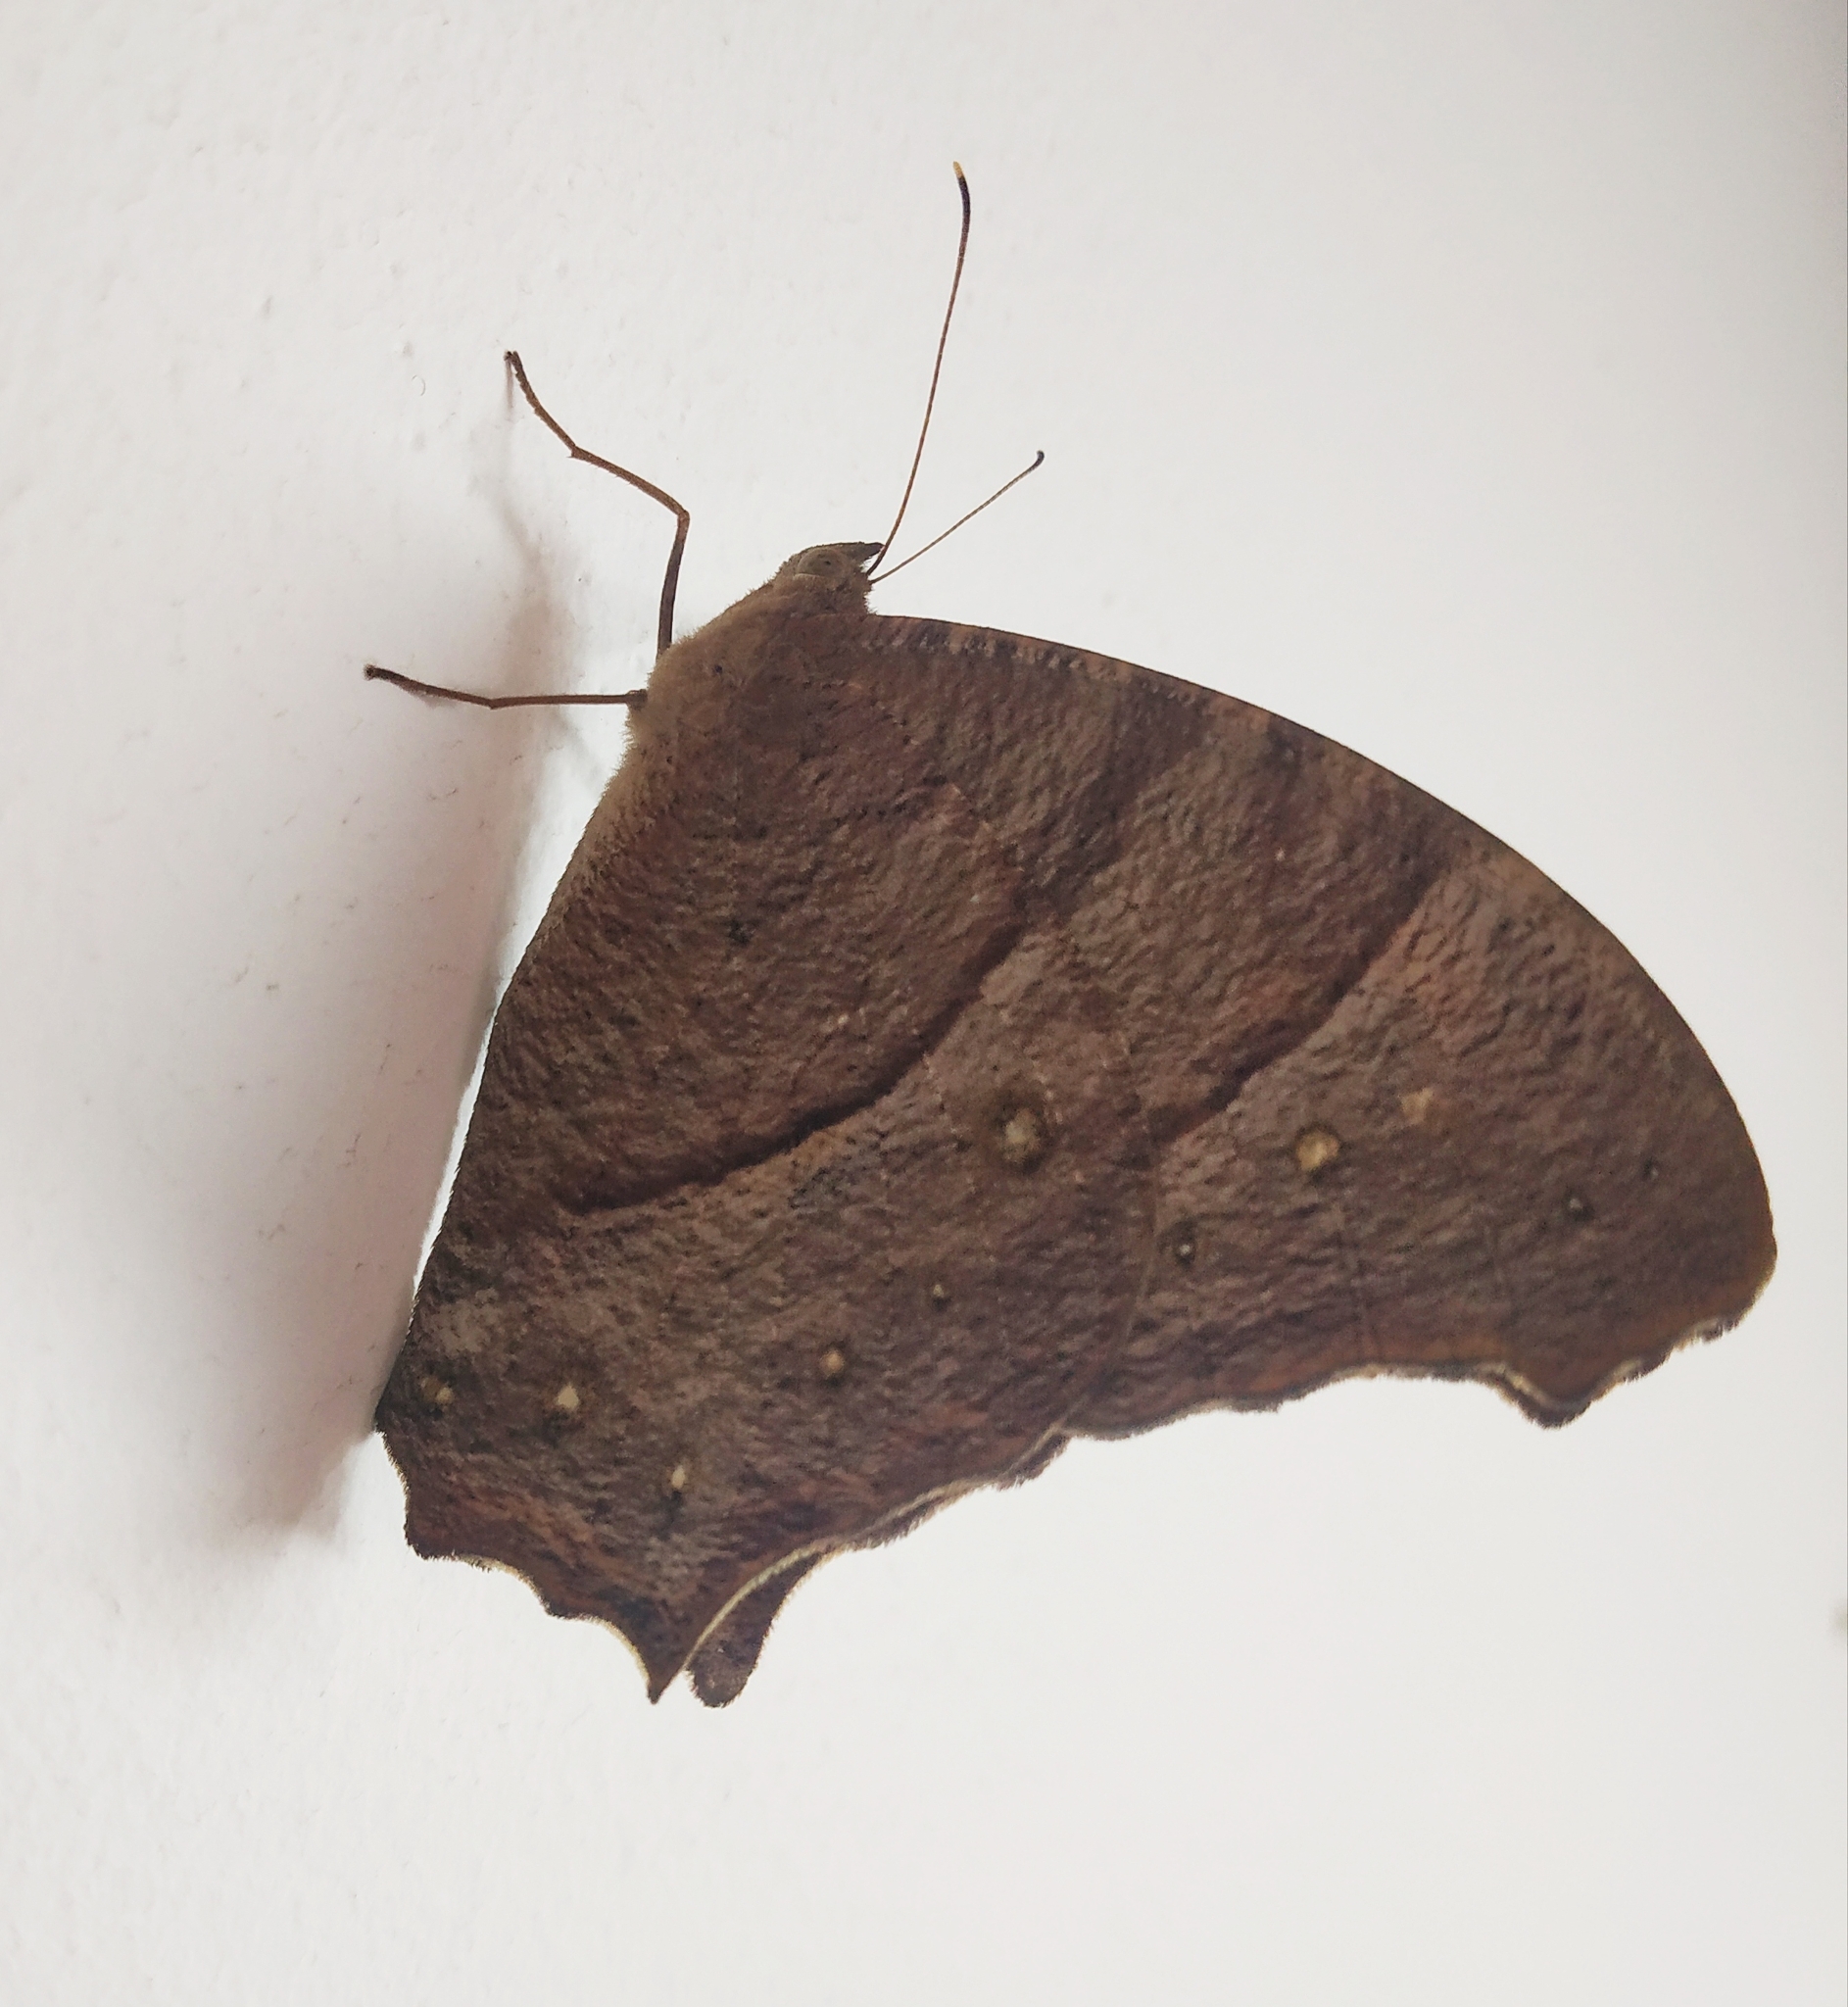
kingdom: Animalia
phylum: Arthropoda
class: Insecta
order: Lepidoptera
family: Nymphalidae
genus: Melanitis
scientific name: Melanitis leda
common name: Twilight brown
